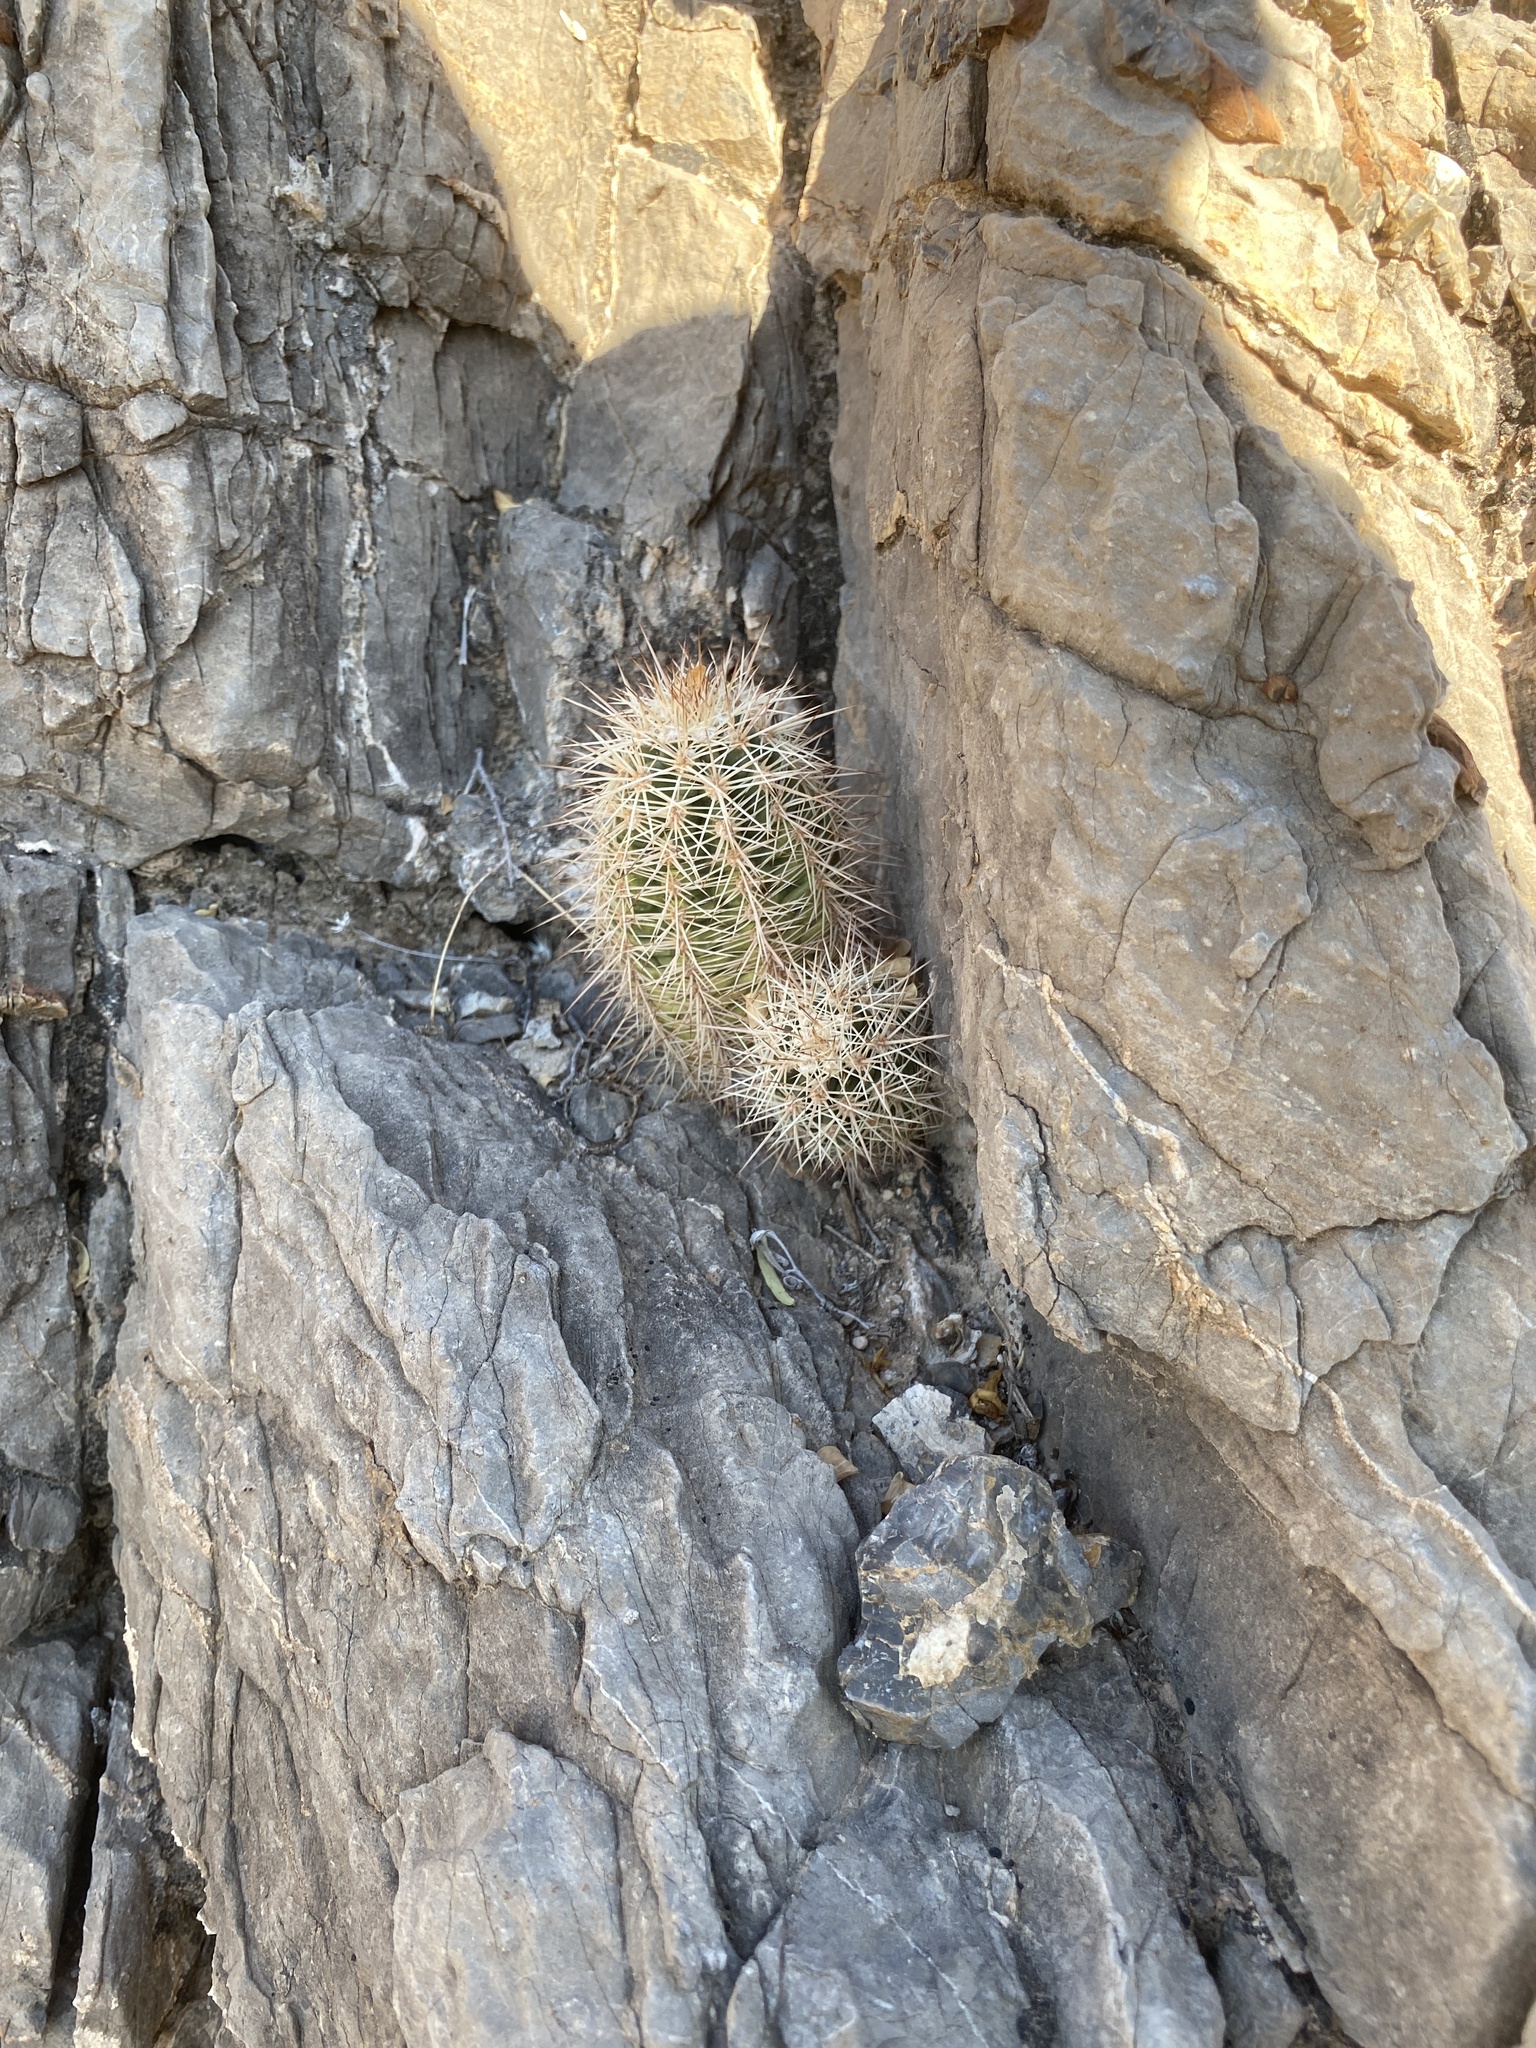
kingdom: Plantae
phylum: Tracheophyta
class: Magnoliopsida
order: Caryophyllales
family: Cactaceae
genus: Echinocereus
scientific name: Echinocereus coccineus
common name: Scarlet hedgehog cactus
